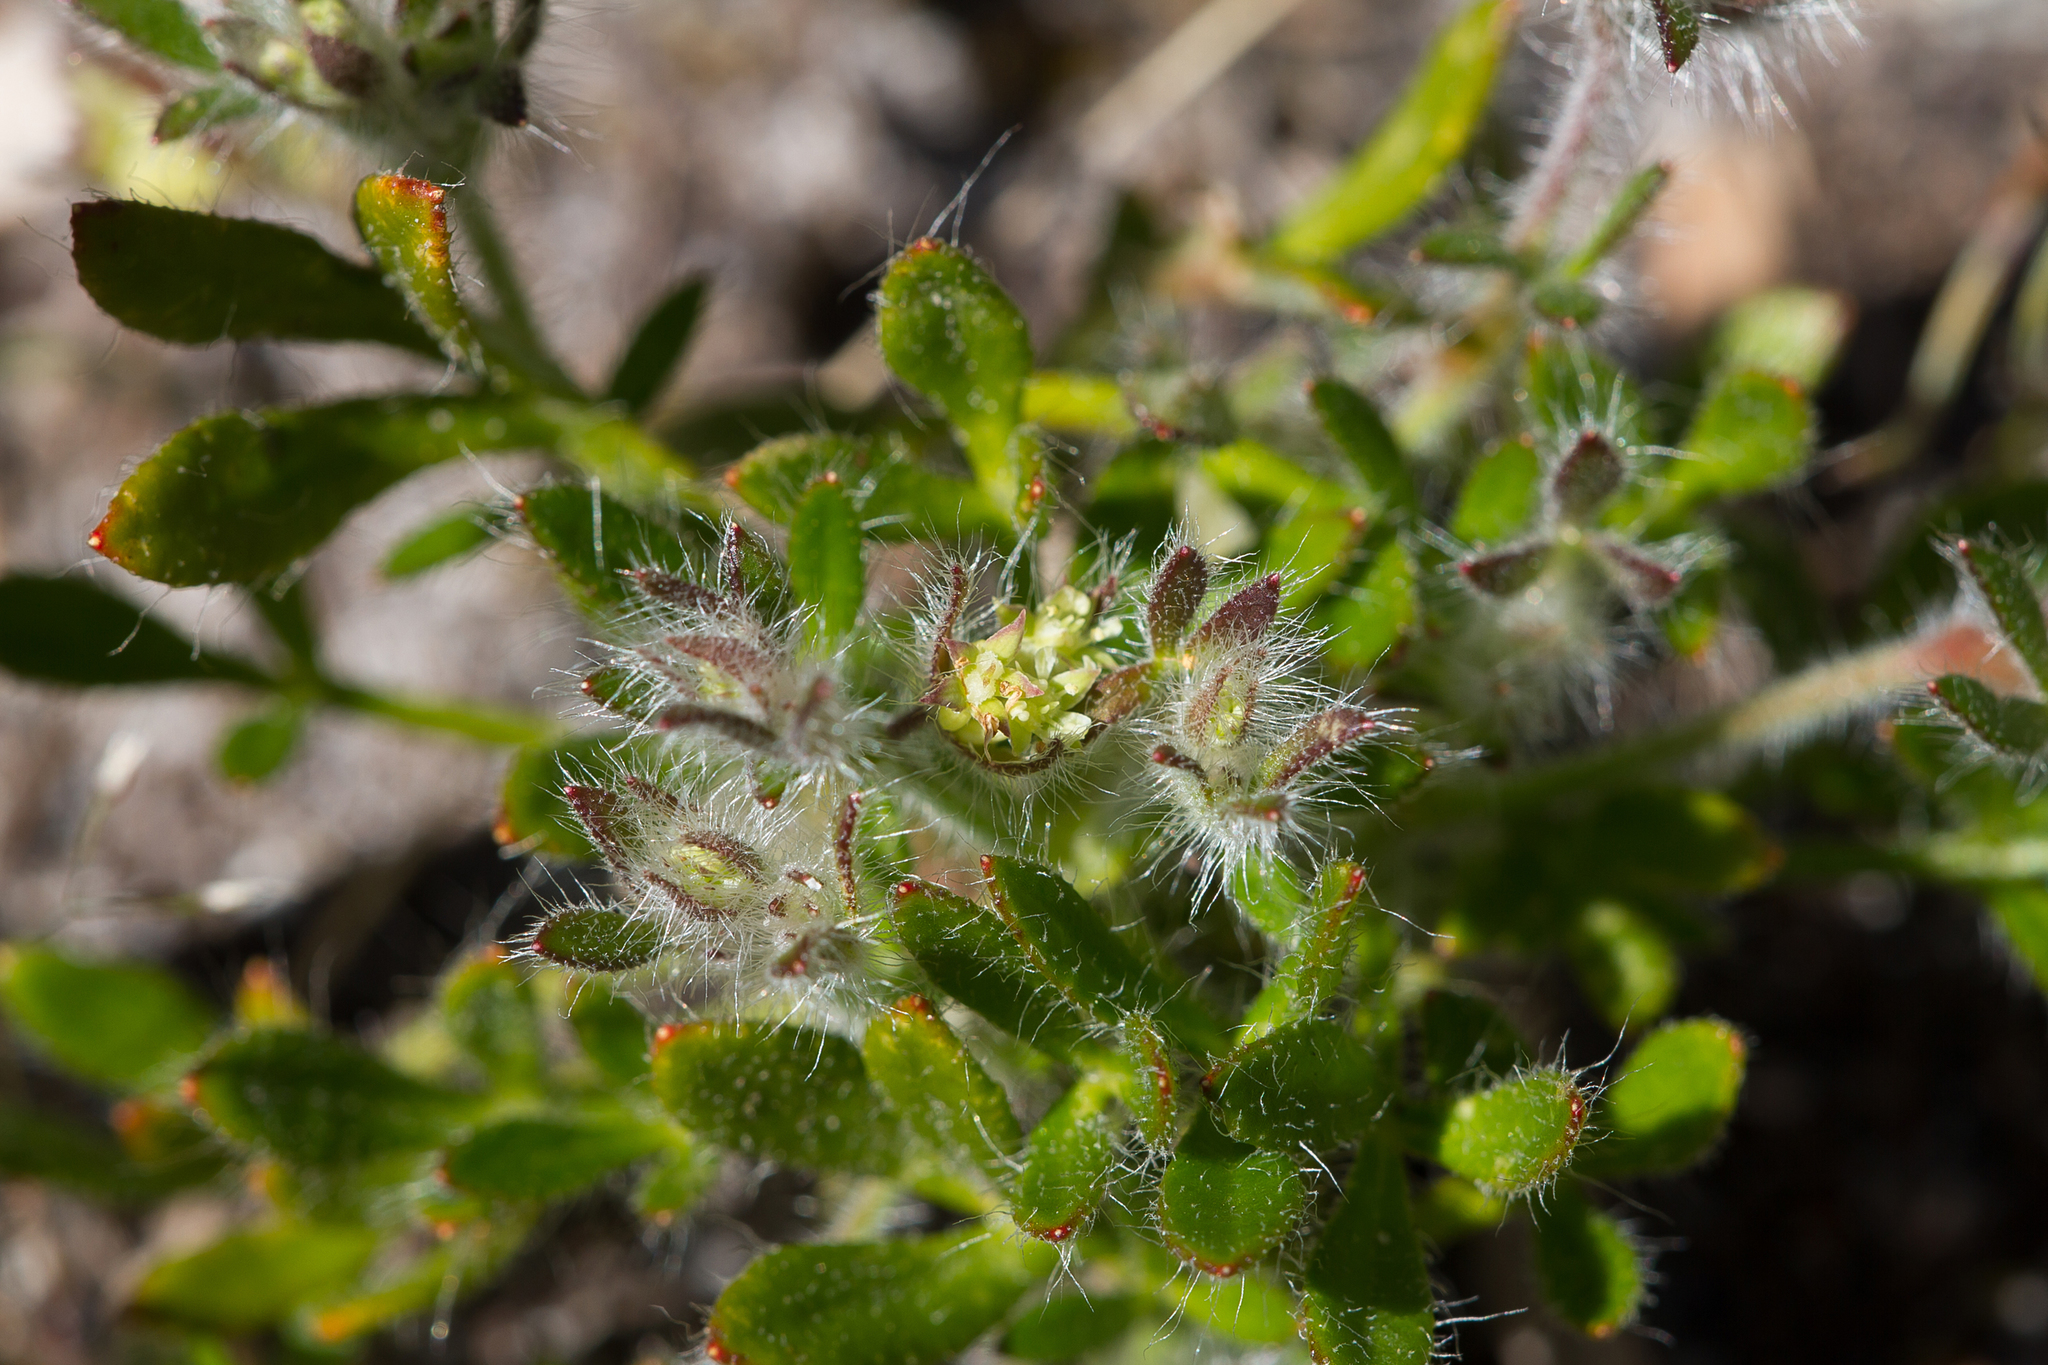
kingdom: Plantae
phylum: Tracheophyta
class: Magnoliopsida
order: Apiales
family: Apiaceae
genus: Xanthosia
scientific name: Xanthosia huegelii
